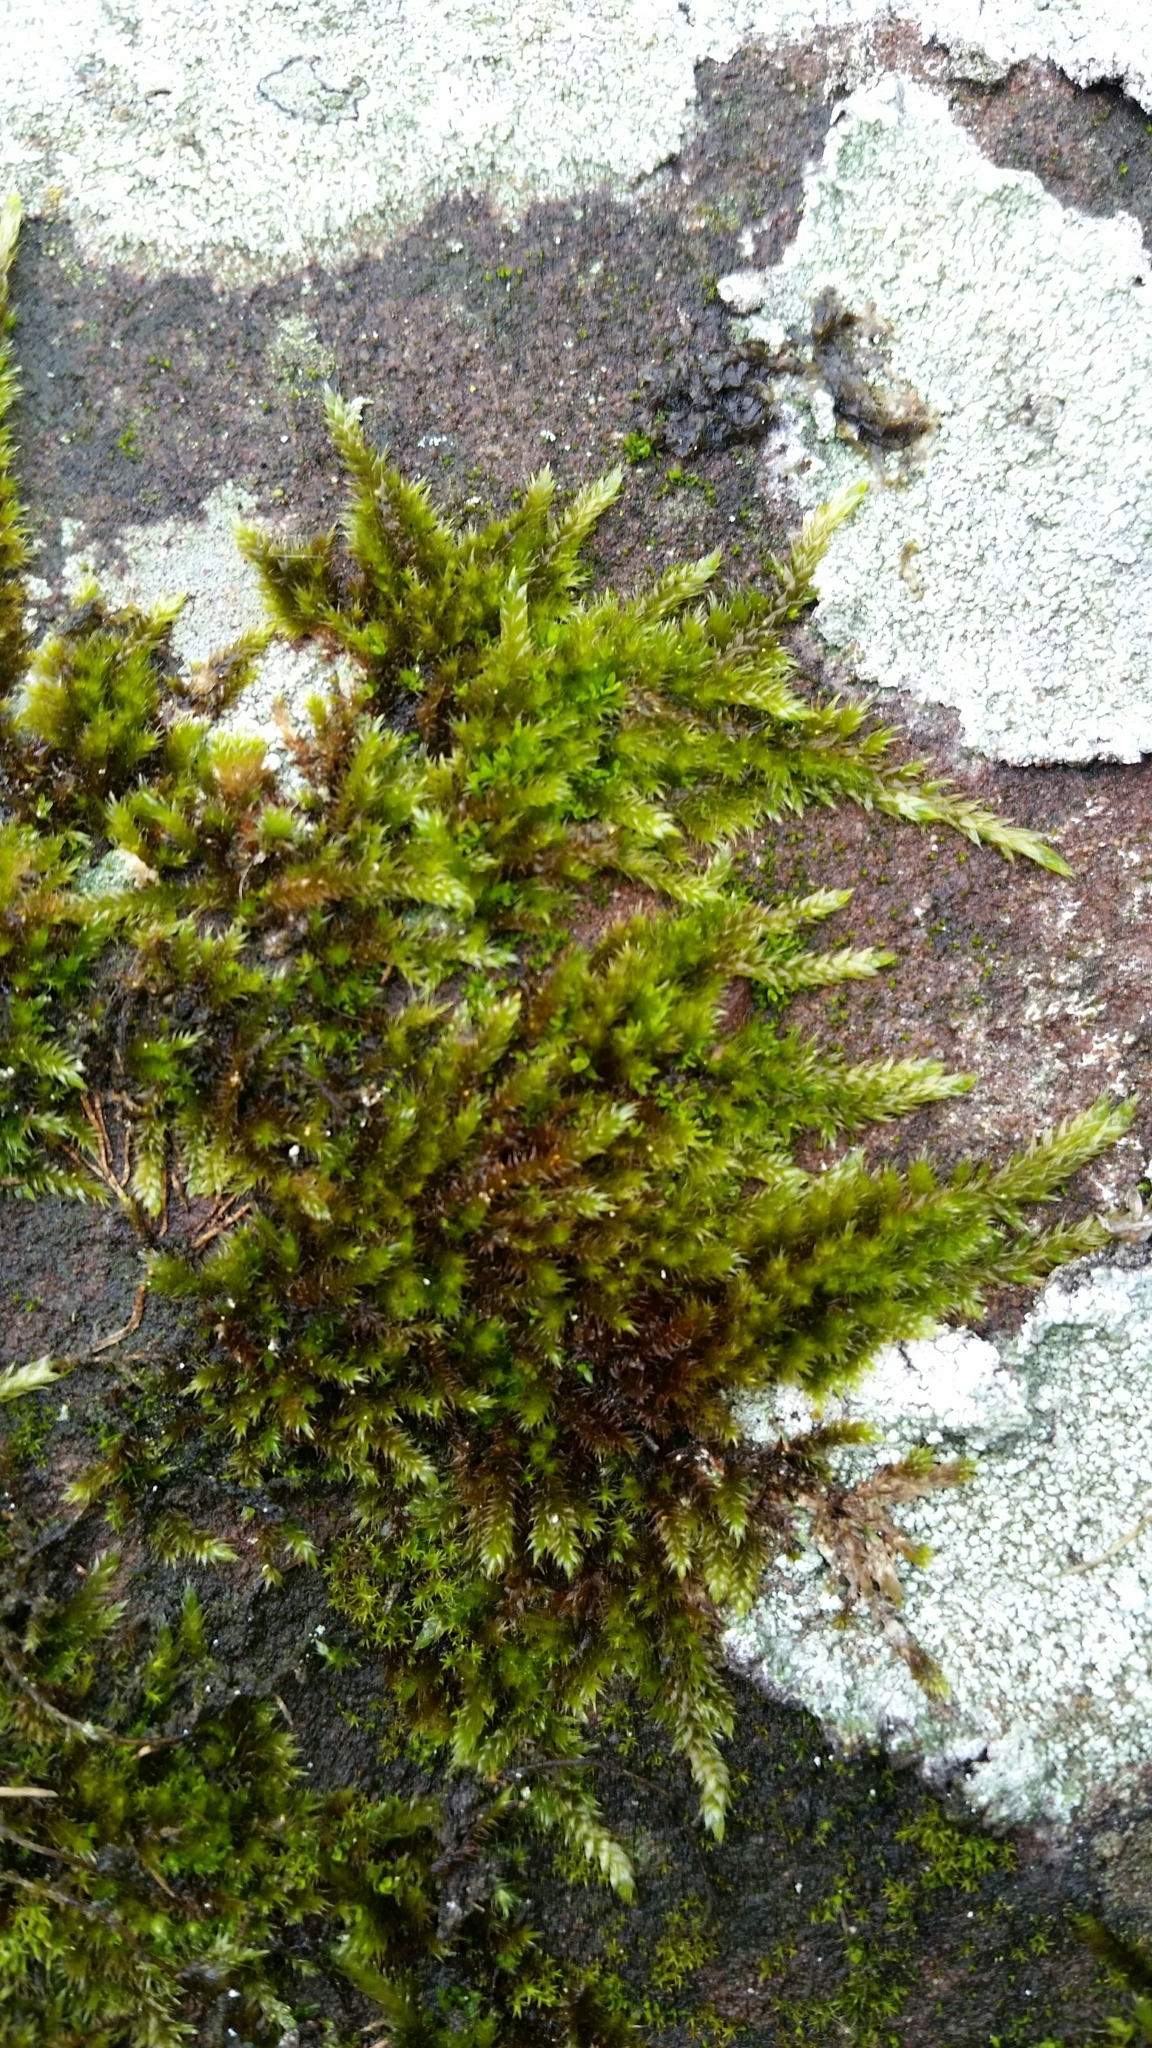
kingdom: Plantae
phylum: Bryophyta
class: Bryopsida
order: Hypnales
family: Brachytheciaceae
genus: Homalothecium
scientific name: Homalothecium sericeum
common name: Silky wall feather-moss
